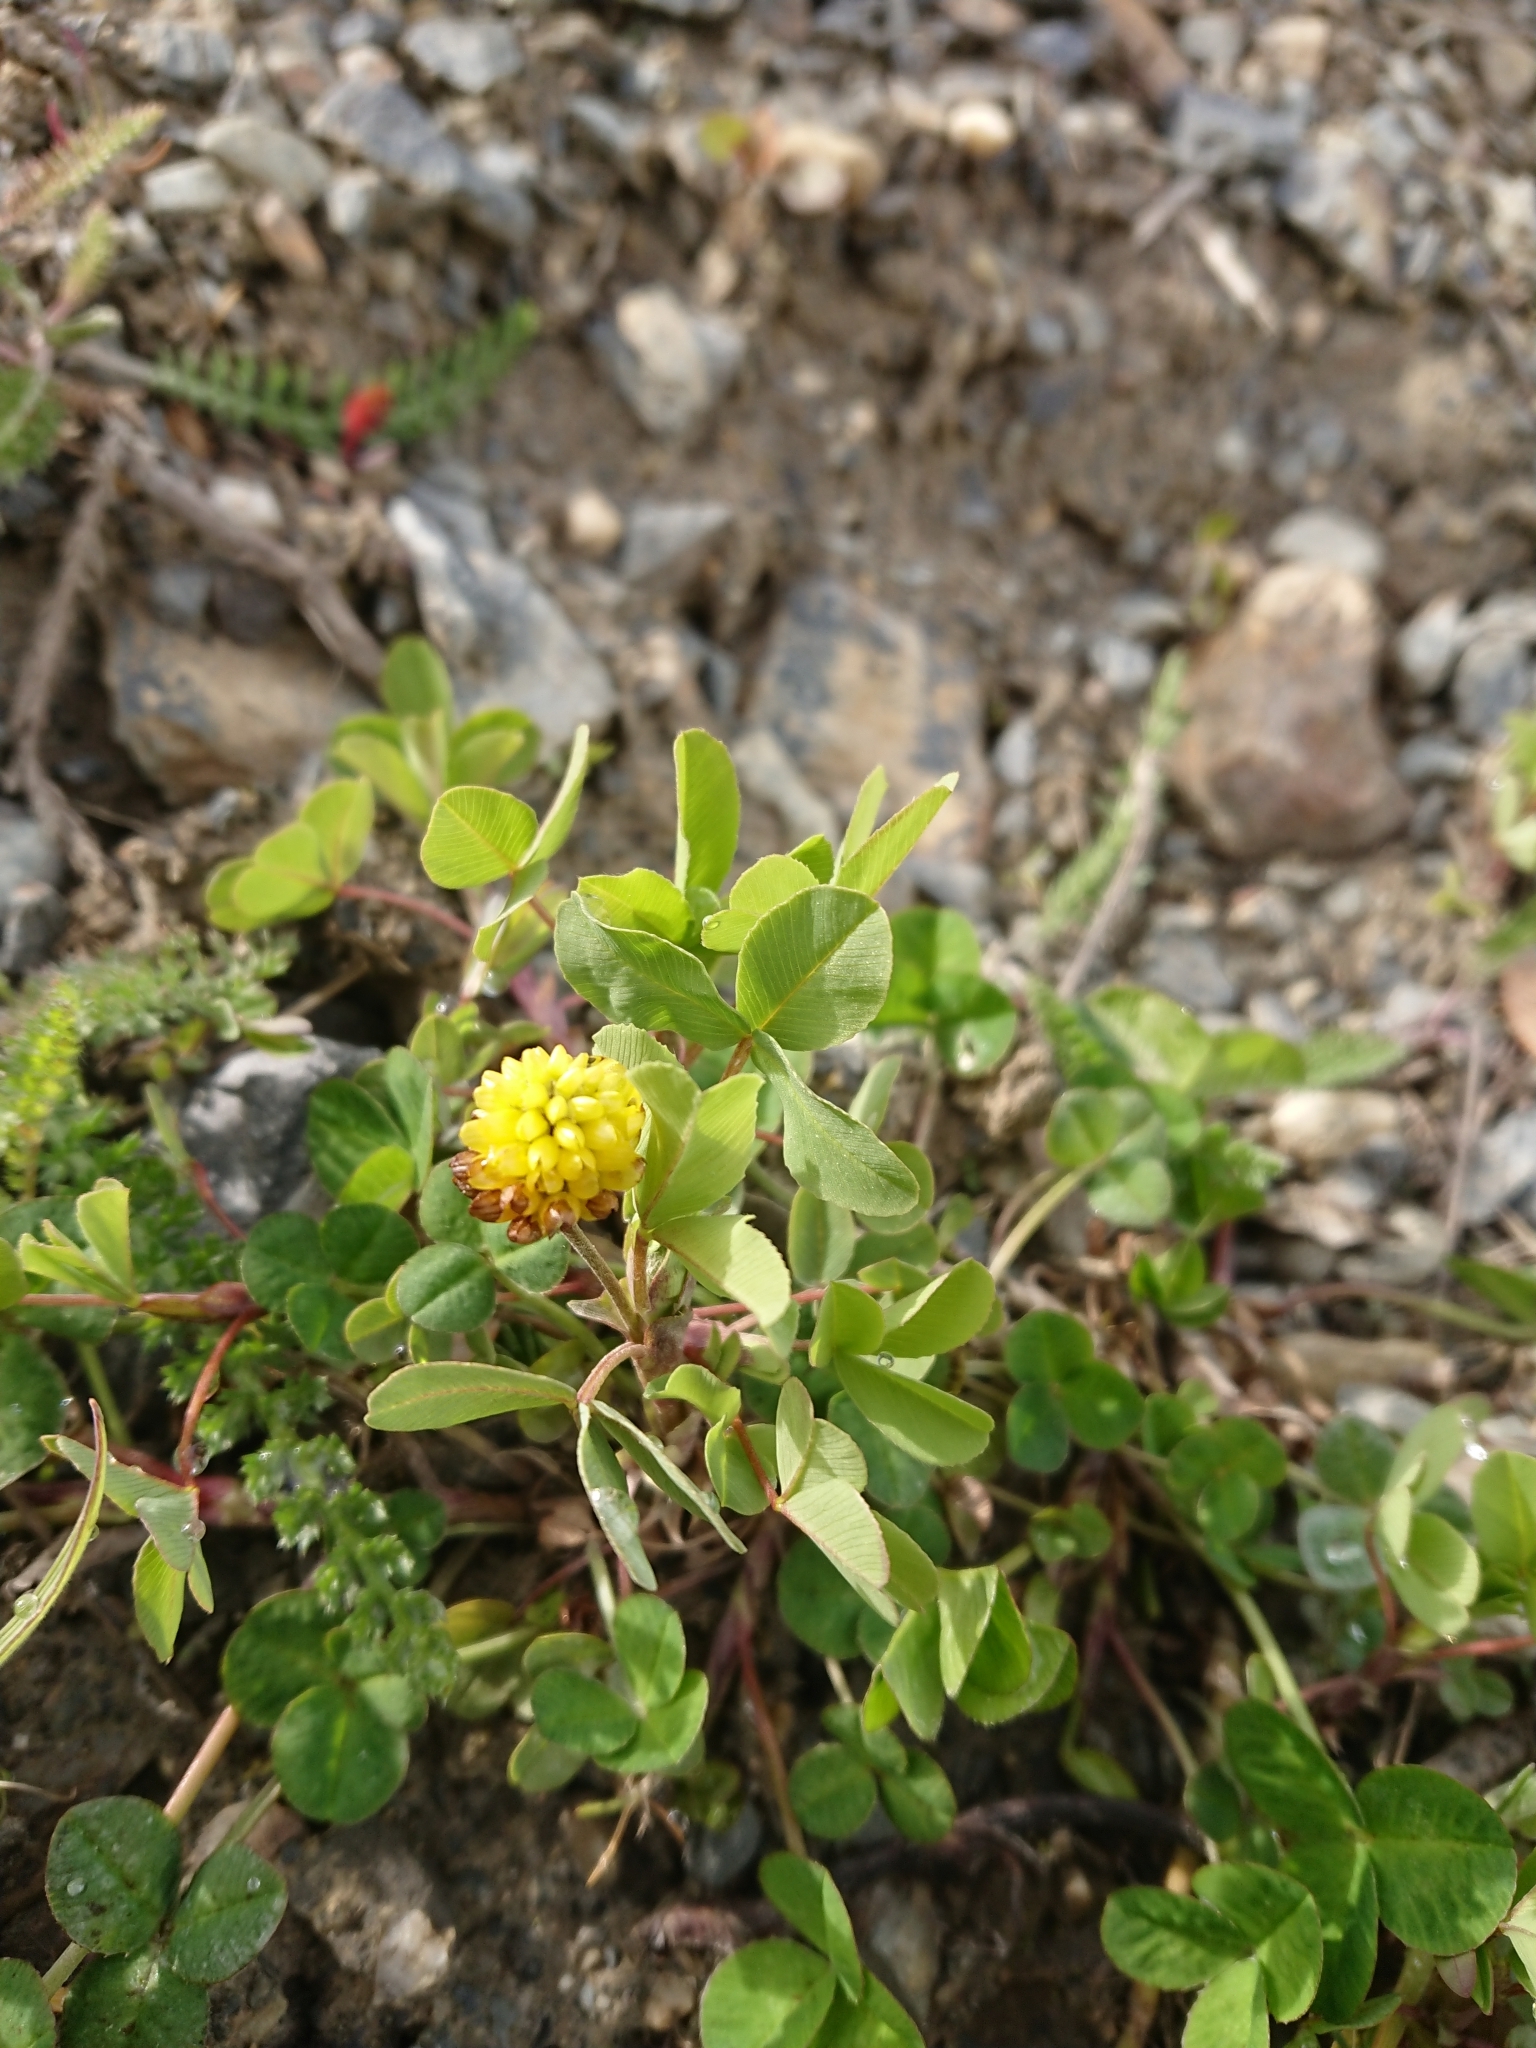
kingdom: Plantae
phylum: Tracheophyta
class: Magnoliopsida
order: Fabales
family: Fabaceae
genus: Trifolium
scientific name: Trifolium spadiceum
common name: Brown moor clover
